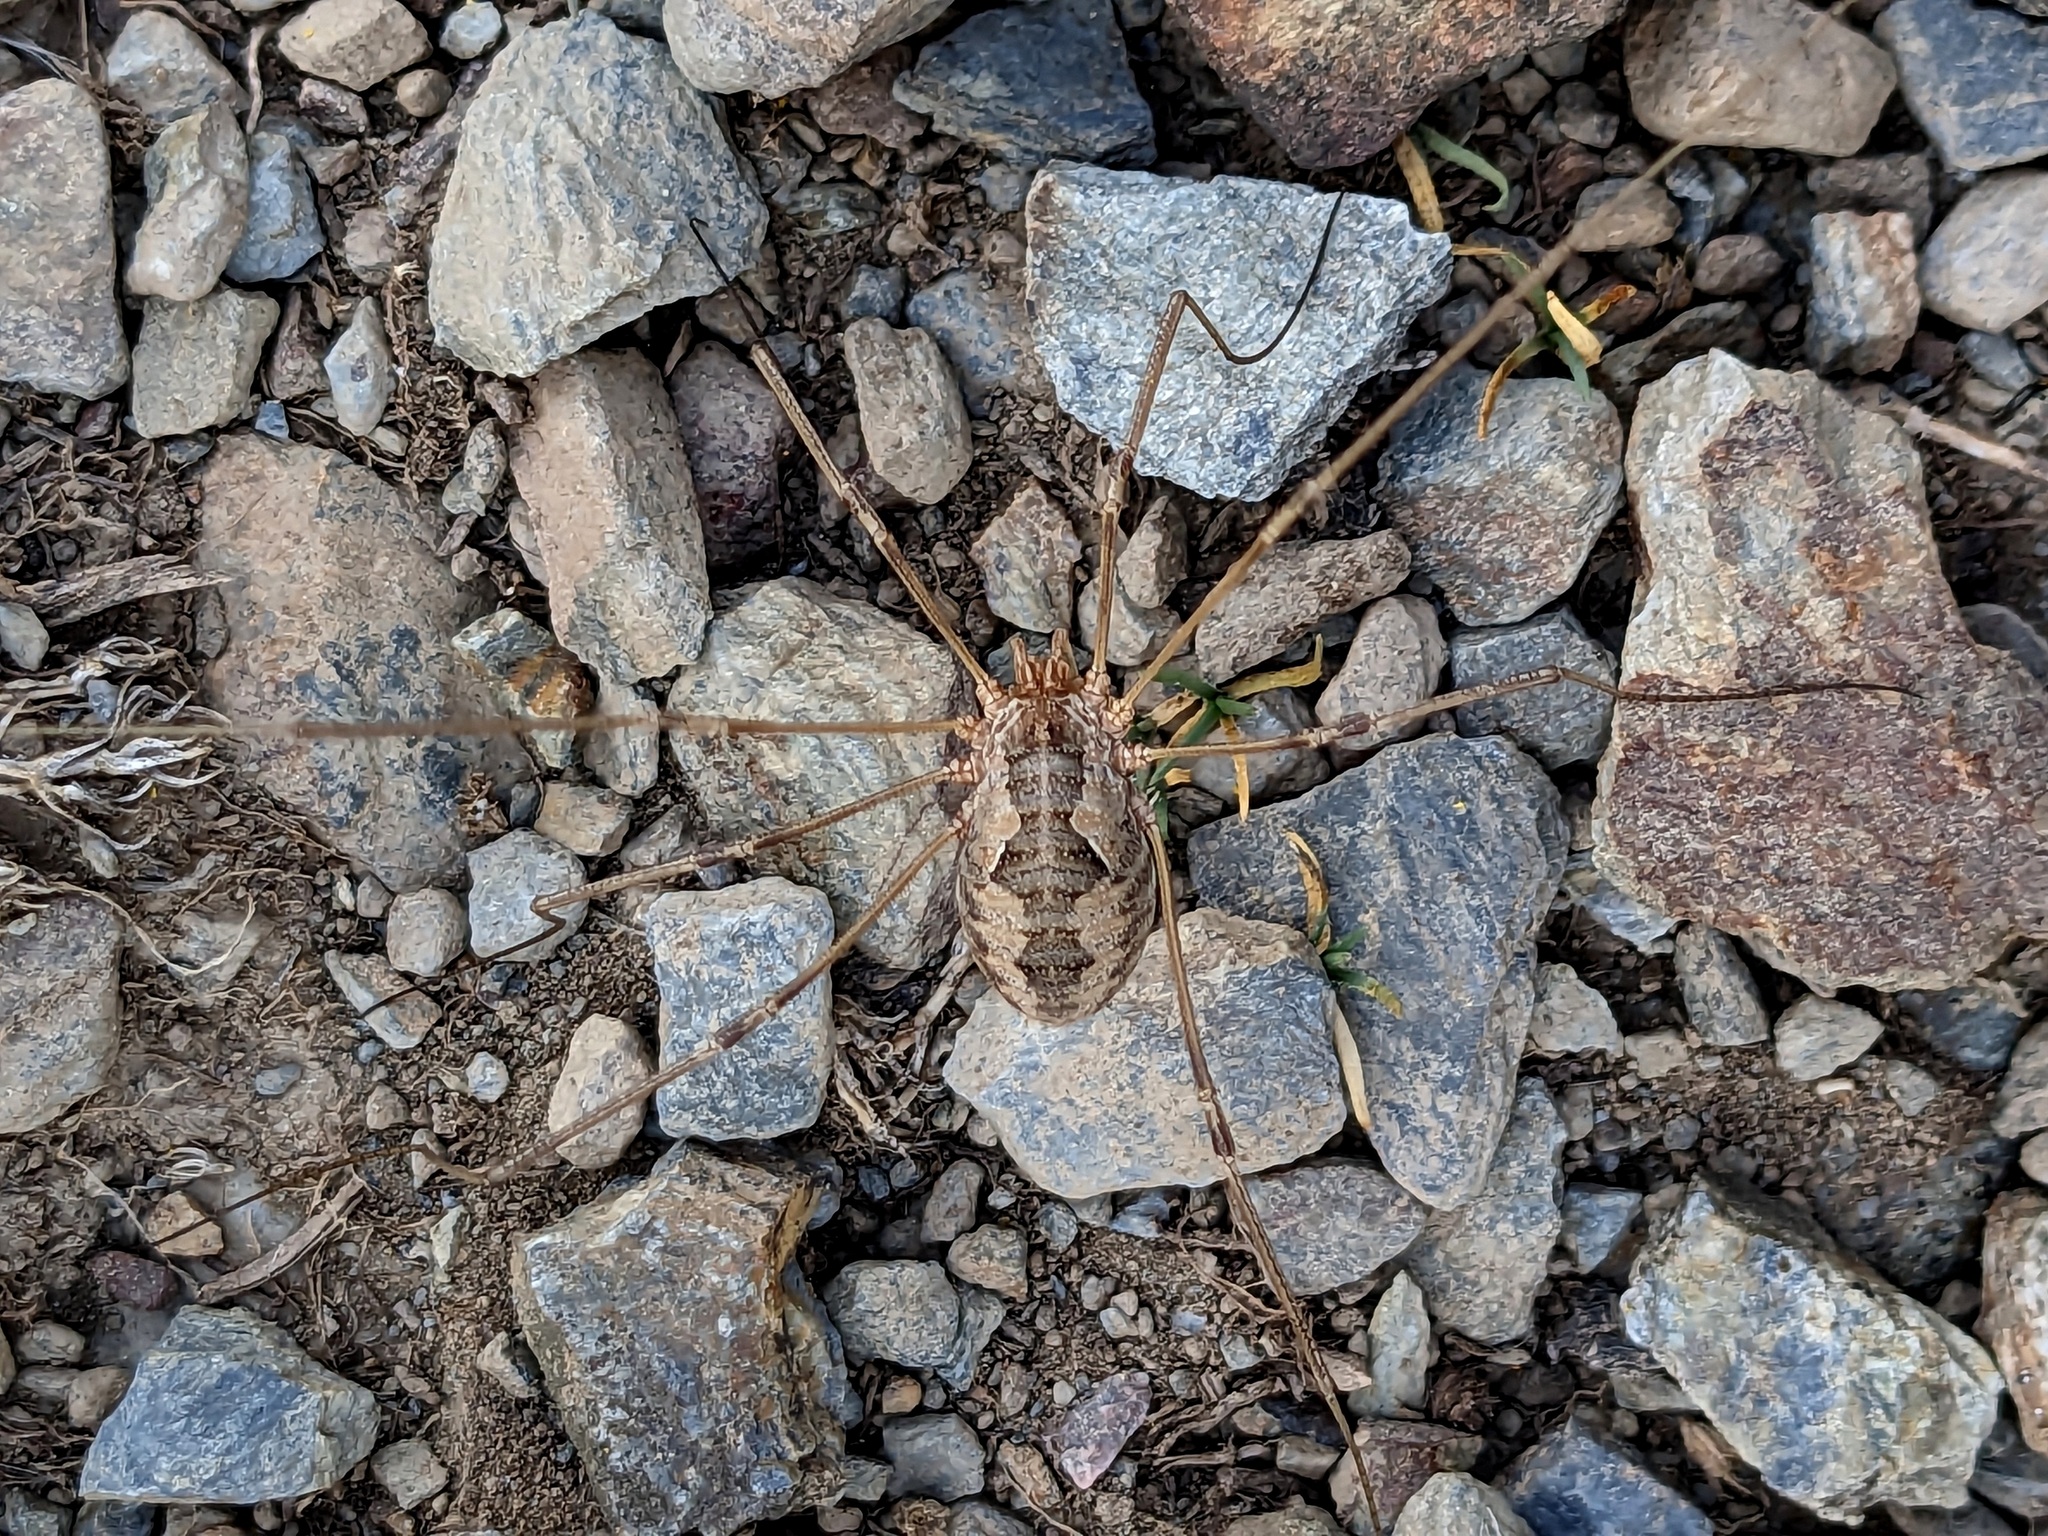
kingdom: Animalia
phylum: Arthropoda
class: Arachnida
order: Opiliones
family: Phalangiidae
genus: Phalangium
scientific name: Phalangium opilio
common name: Daddy longleg
